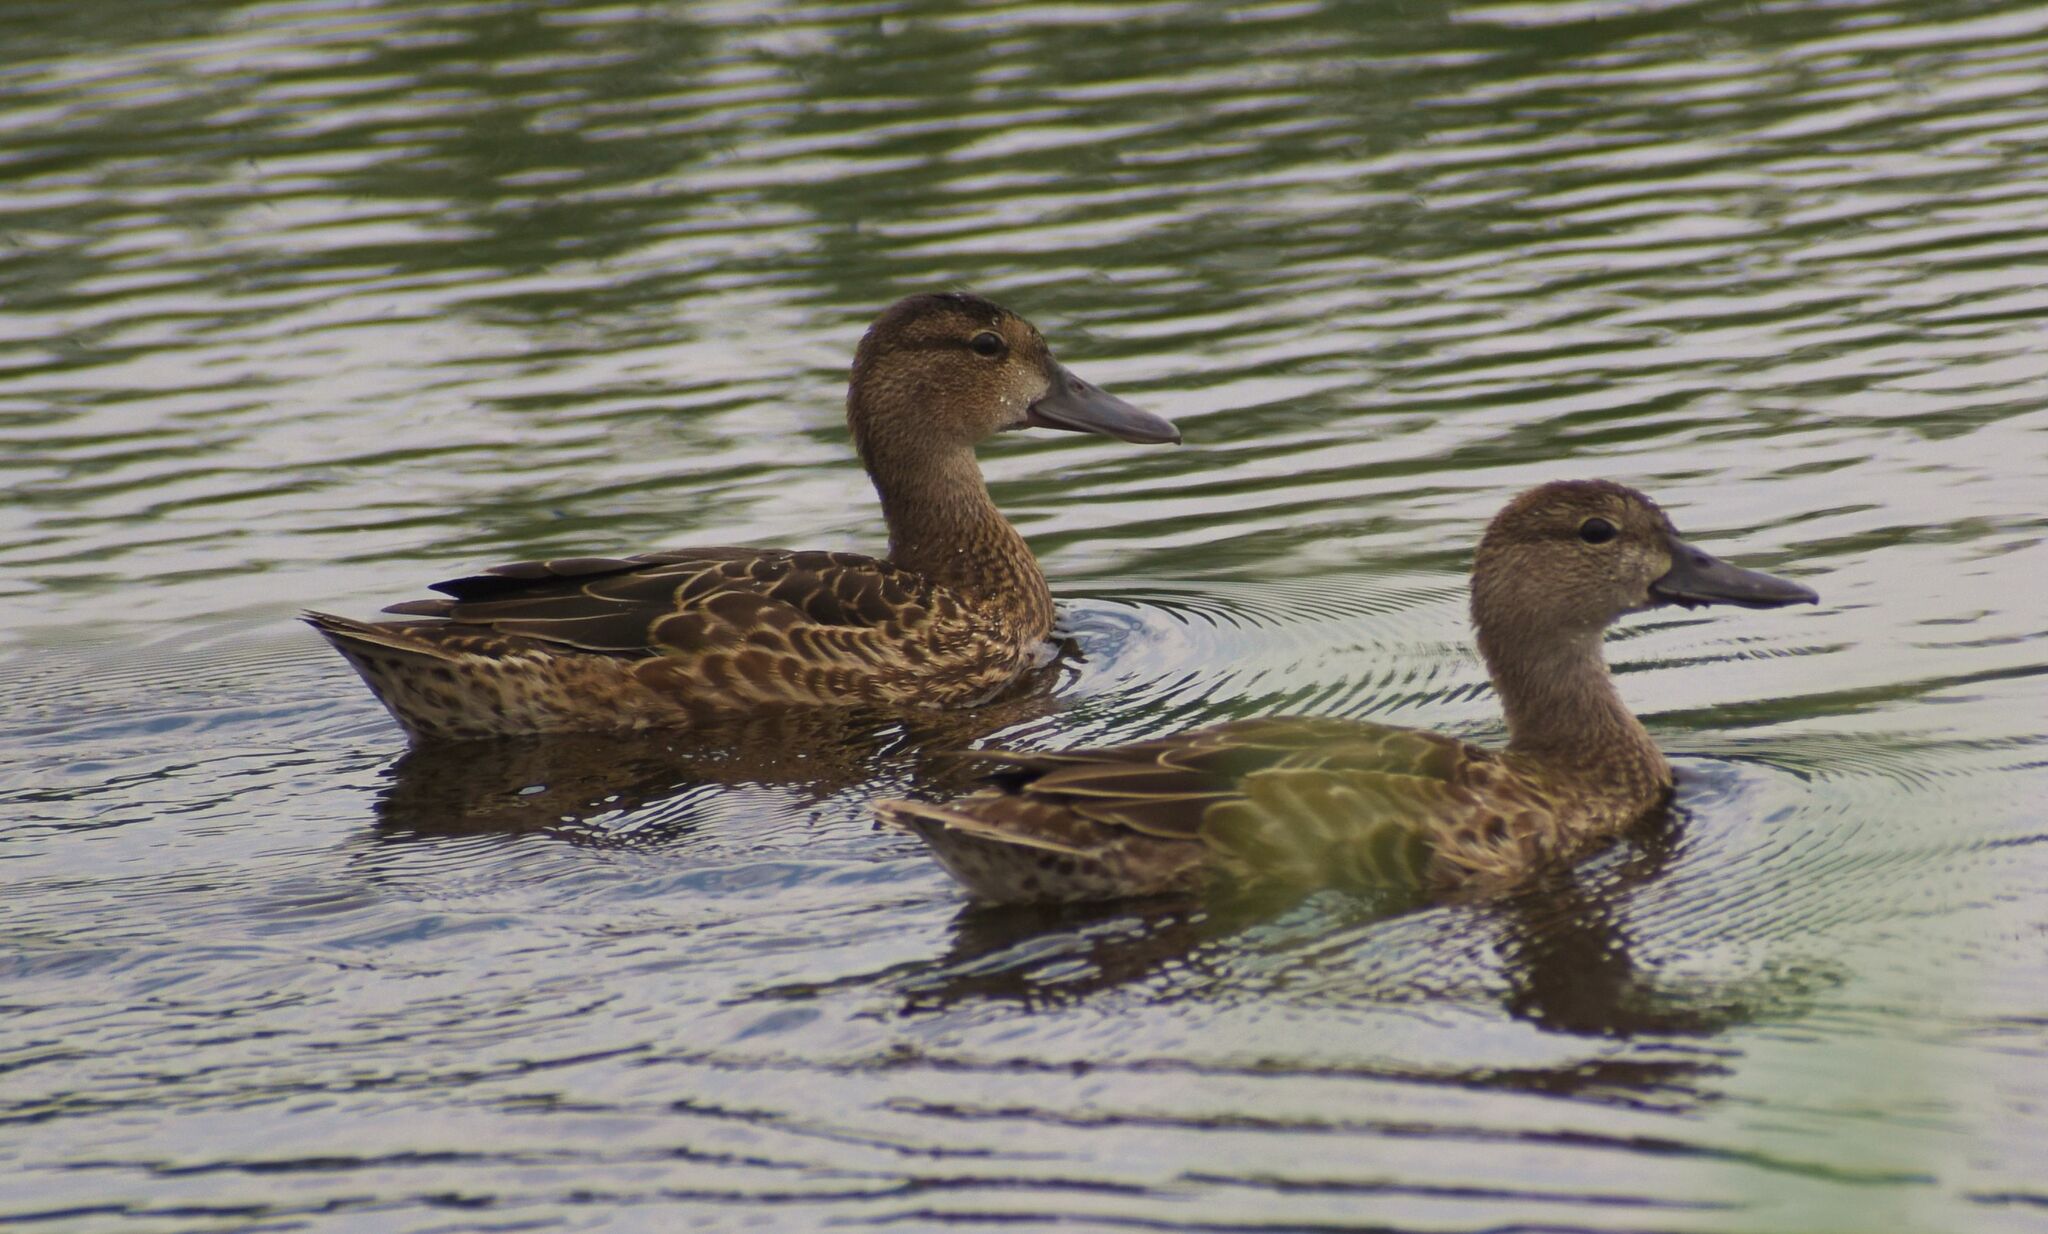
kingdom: Animalia
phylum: Chordata
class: Aves
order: Anseriformes
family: Anatidae
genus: Anas
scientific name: Anas platyrhynchos
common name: Mallard
